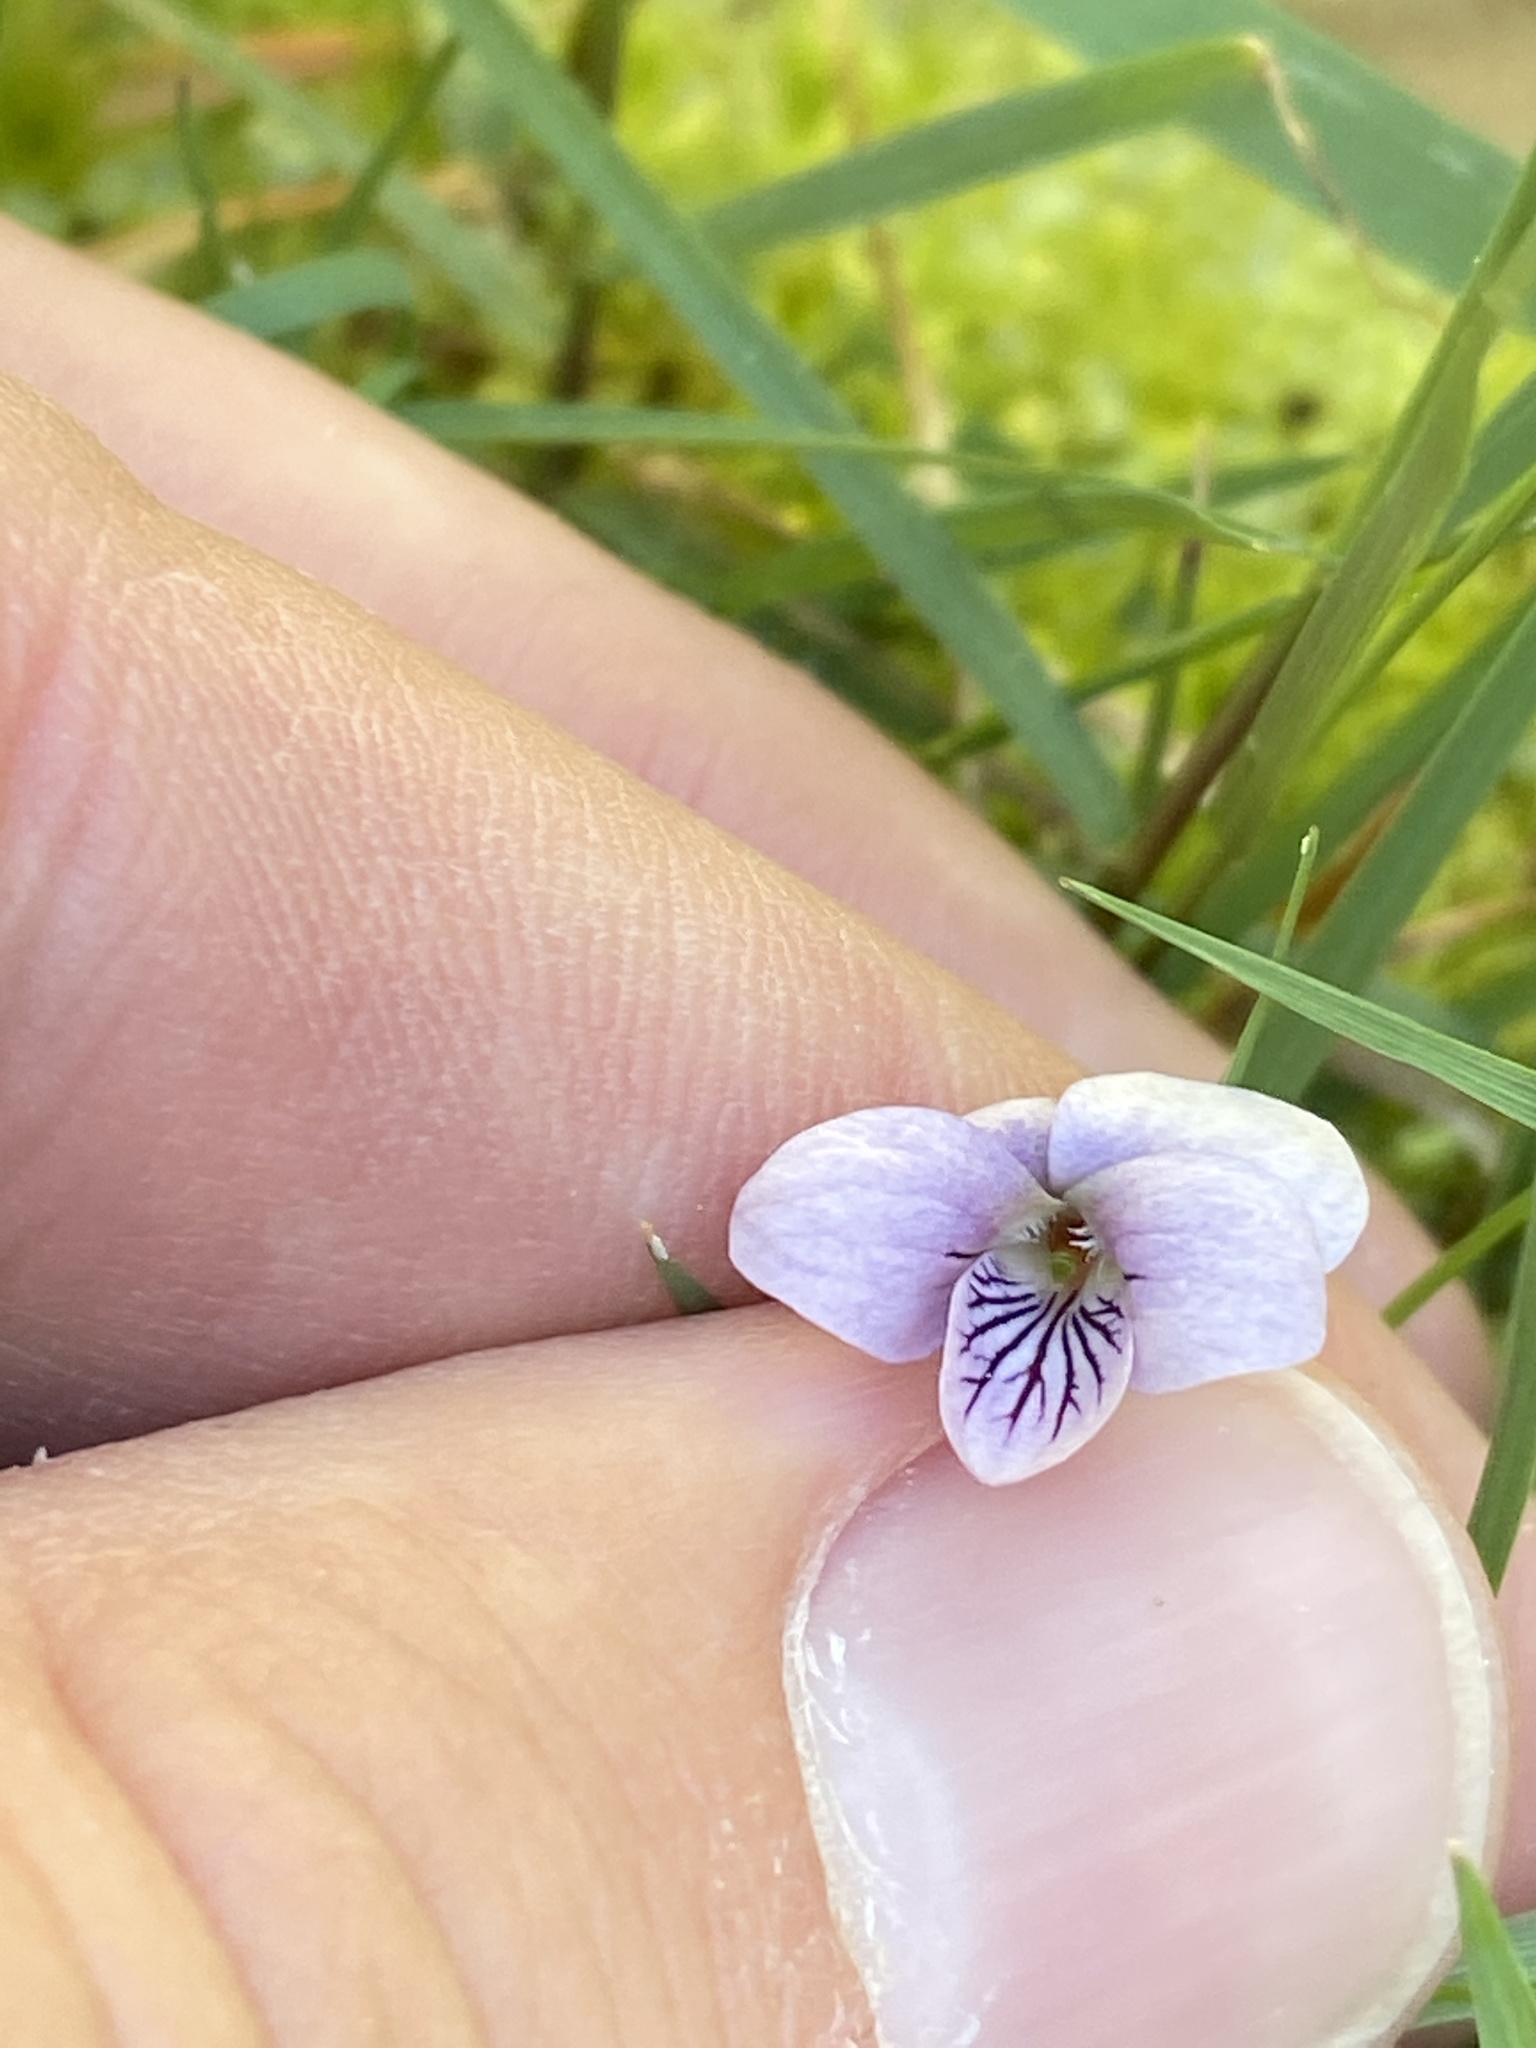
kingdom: Plantae
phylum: Tracheophyta
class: Magnoliopsida
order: Malpighiales
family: Violaceae
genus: Viola
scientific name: Viola palustris
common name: Marsh violet
